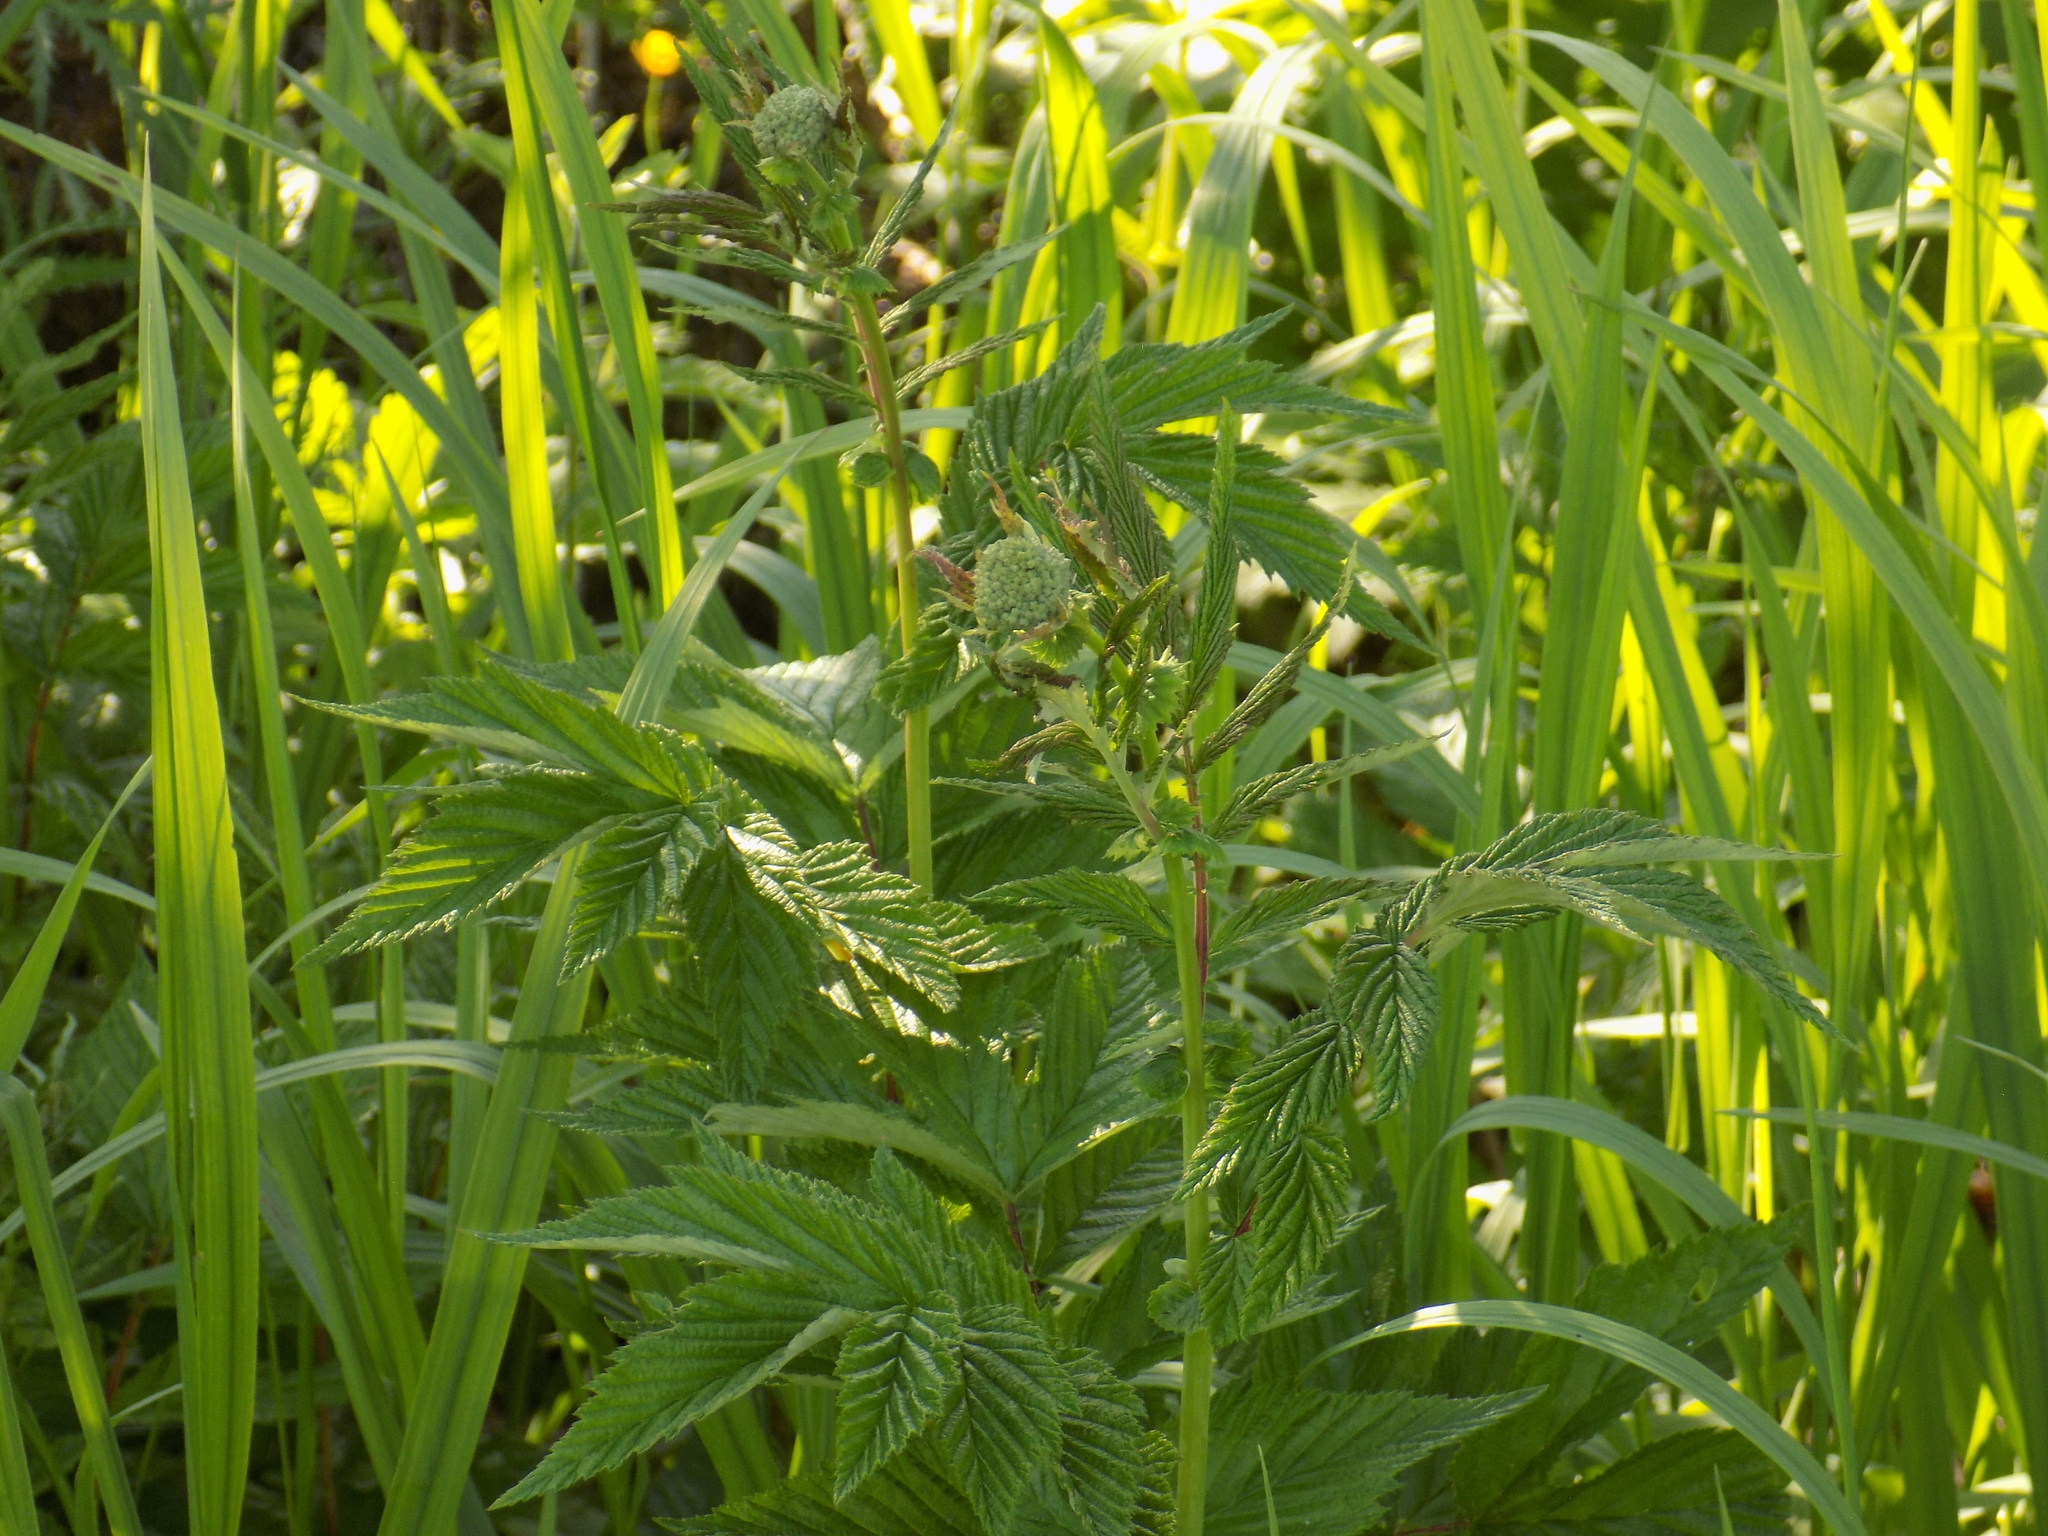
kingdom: Plantae
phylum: Tracheophyta
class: Magnoliopsida
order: Rosales
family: Rosaceae
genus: Filipendula
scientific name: Filipendula ulmaria
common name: Meadowsweet
